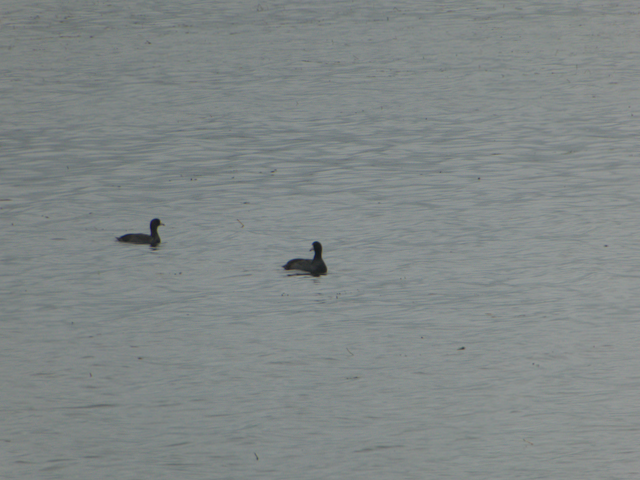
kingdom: Animalia
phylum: Chordata
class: Aves
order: Gruiformes
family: Rallidae
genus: Fulica
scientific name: Fulica americana
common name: American coot
